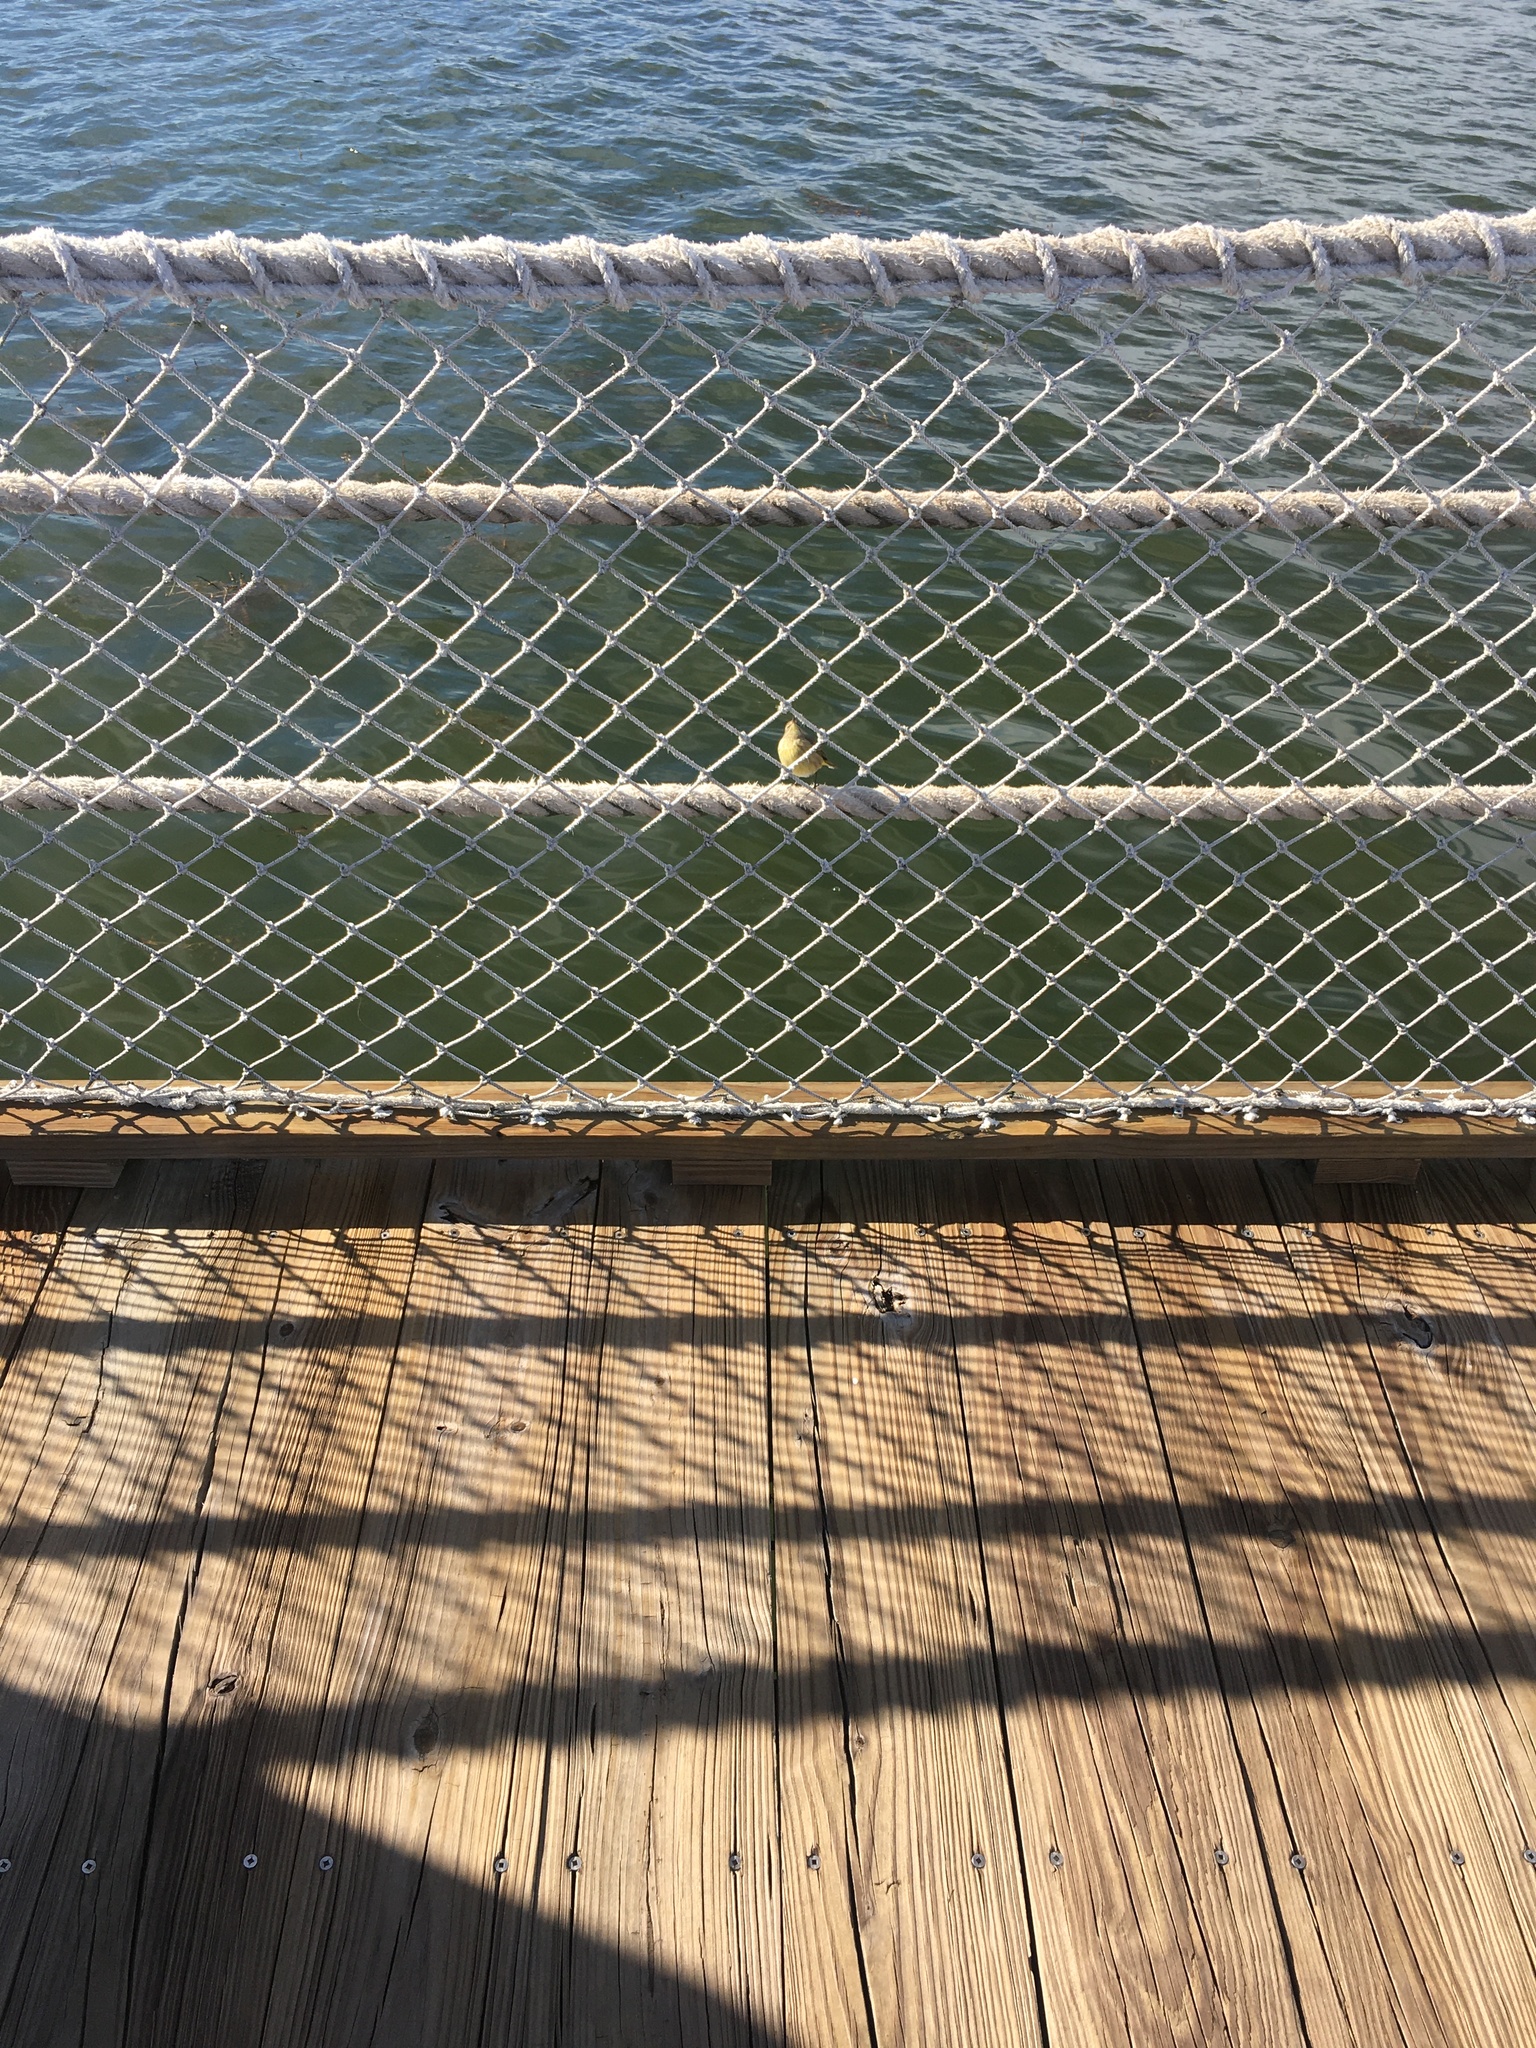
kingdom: Animalia
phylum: Chordata
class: Aves
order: Passeriformes
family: Parulidae
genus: Setophaga
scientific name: Setophaga palmarum
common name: Palm warbler
